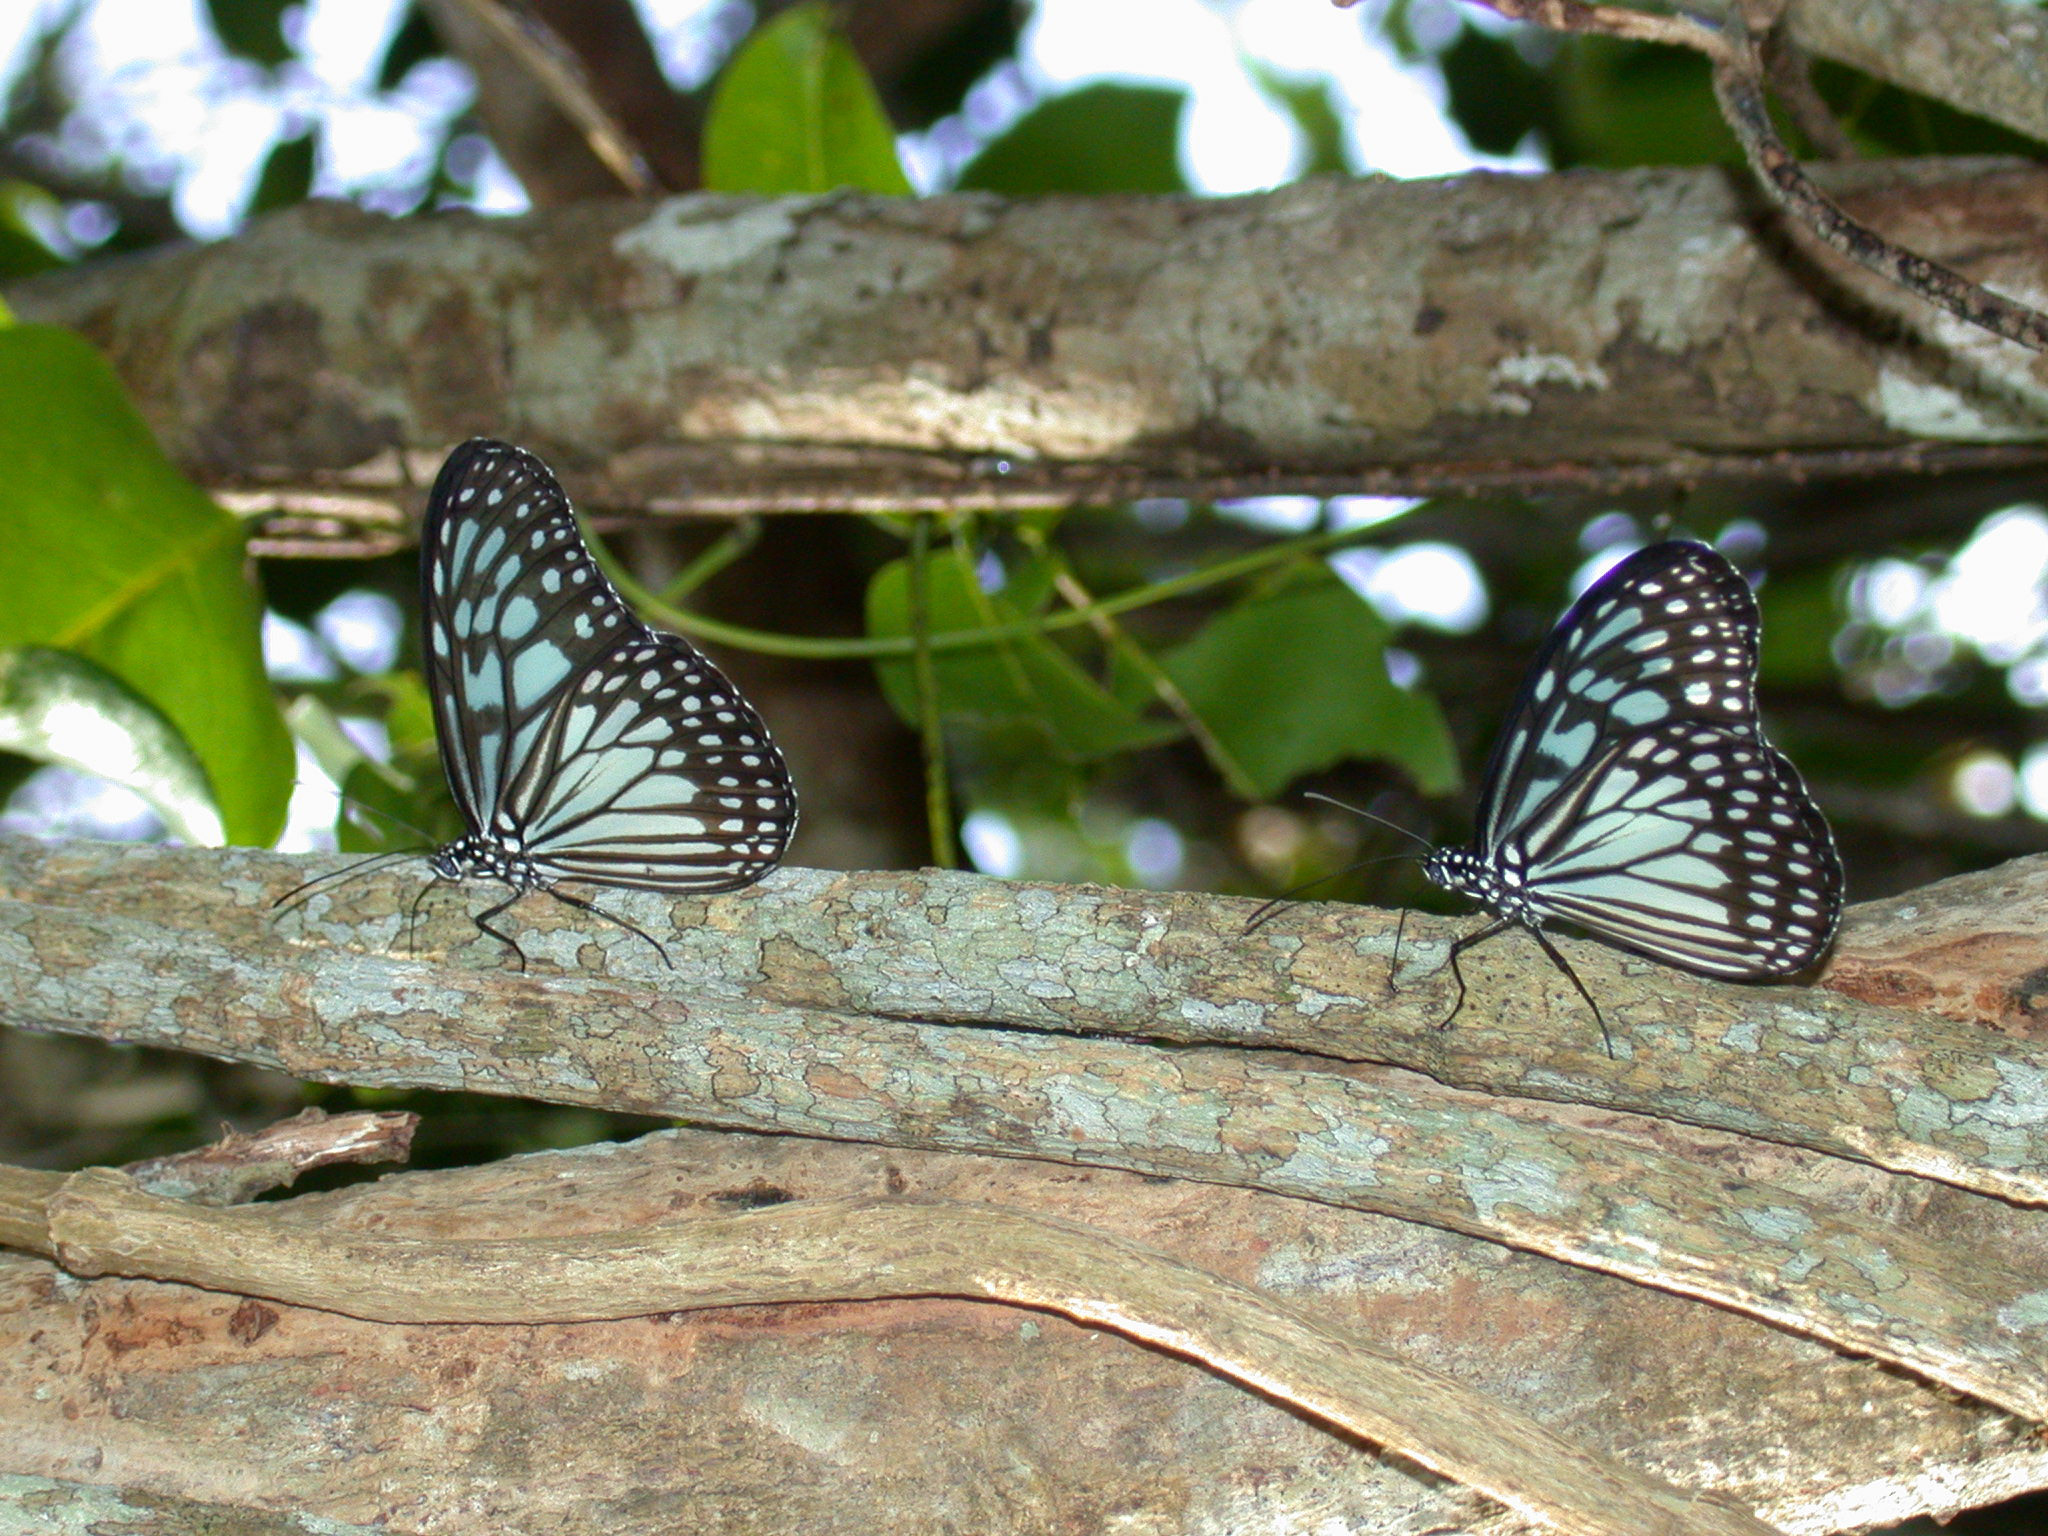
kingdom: Animalia
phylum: Arthropoda
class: Insecta
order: Lepidoptera
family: Nymphalidae
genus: Ideopsis
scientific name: Ideopsis juventa
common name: Grey glassy tiger
